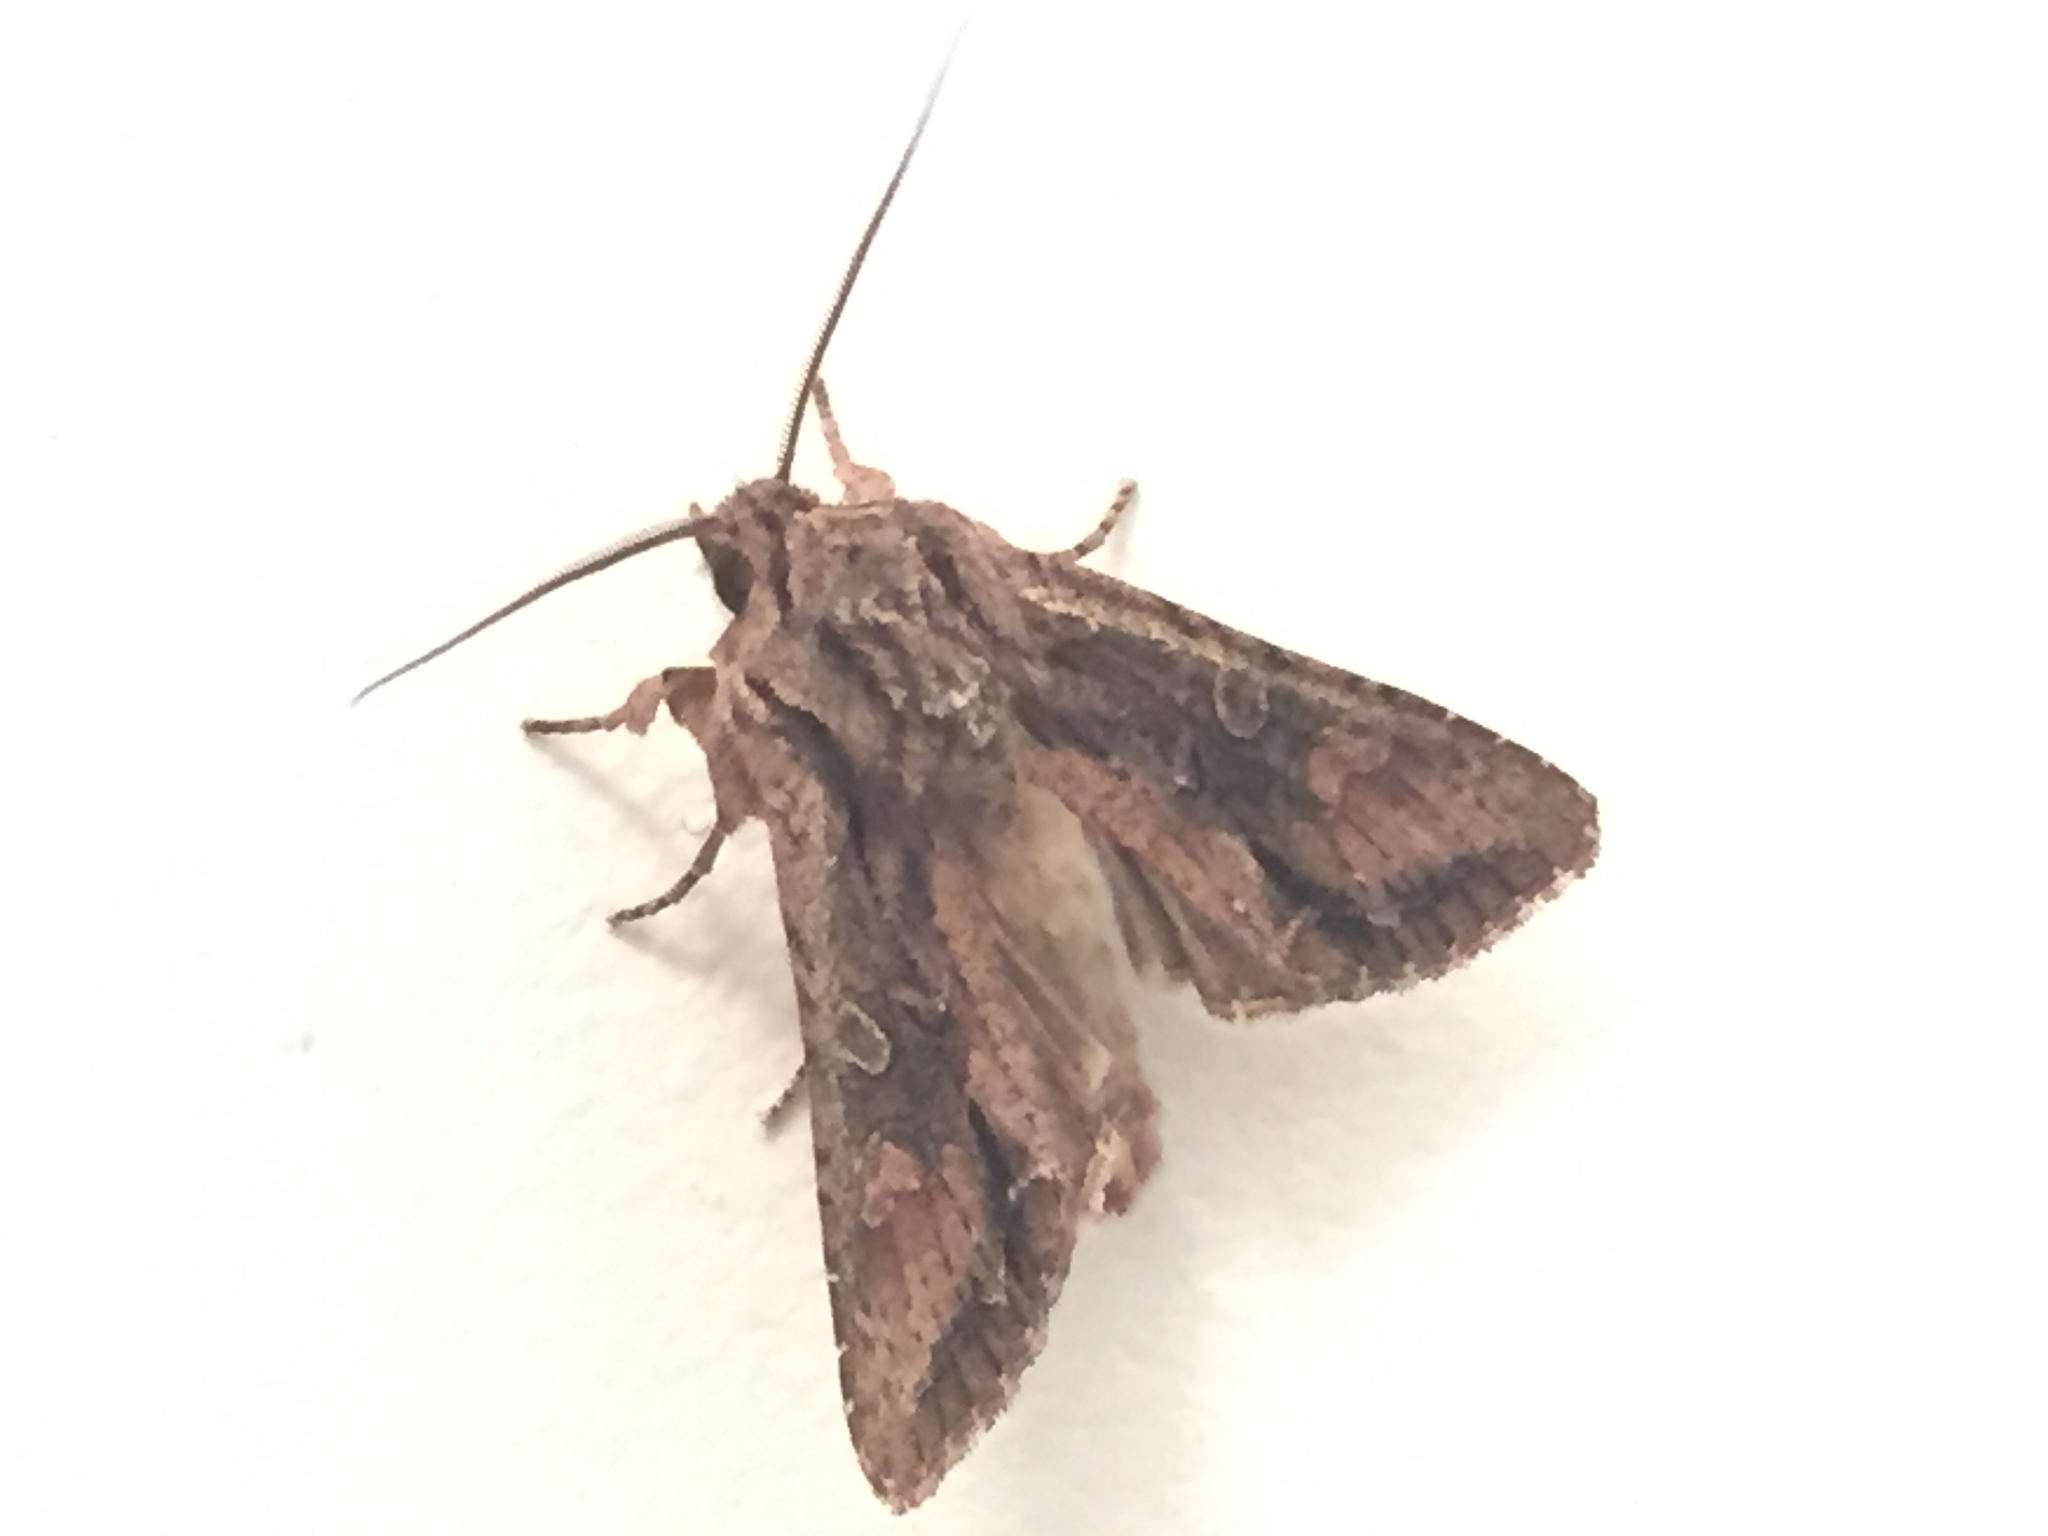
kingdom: Animalia
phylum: Arthropoda
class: Insecta
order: Lepidoptera
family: Noctuidae
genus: Ichneutica
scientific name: Ichneutica mutans
